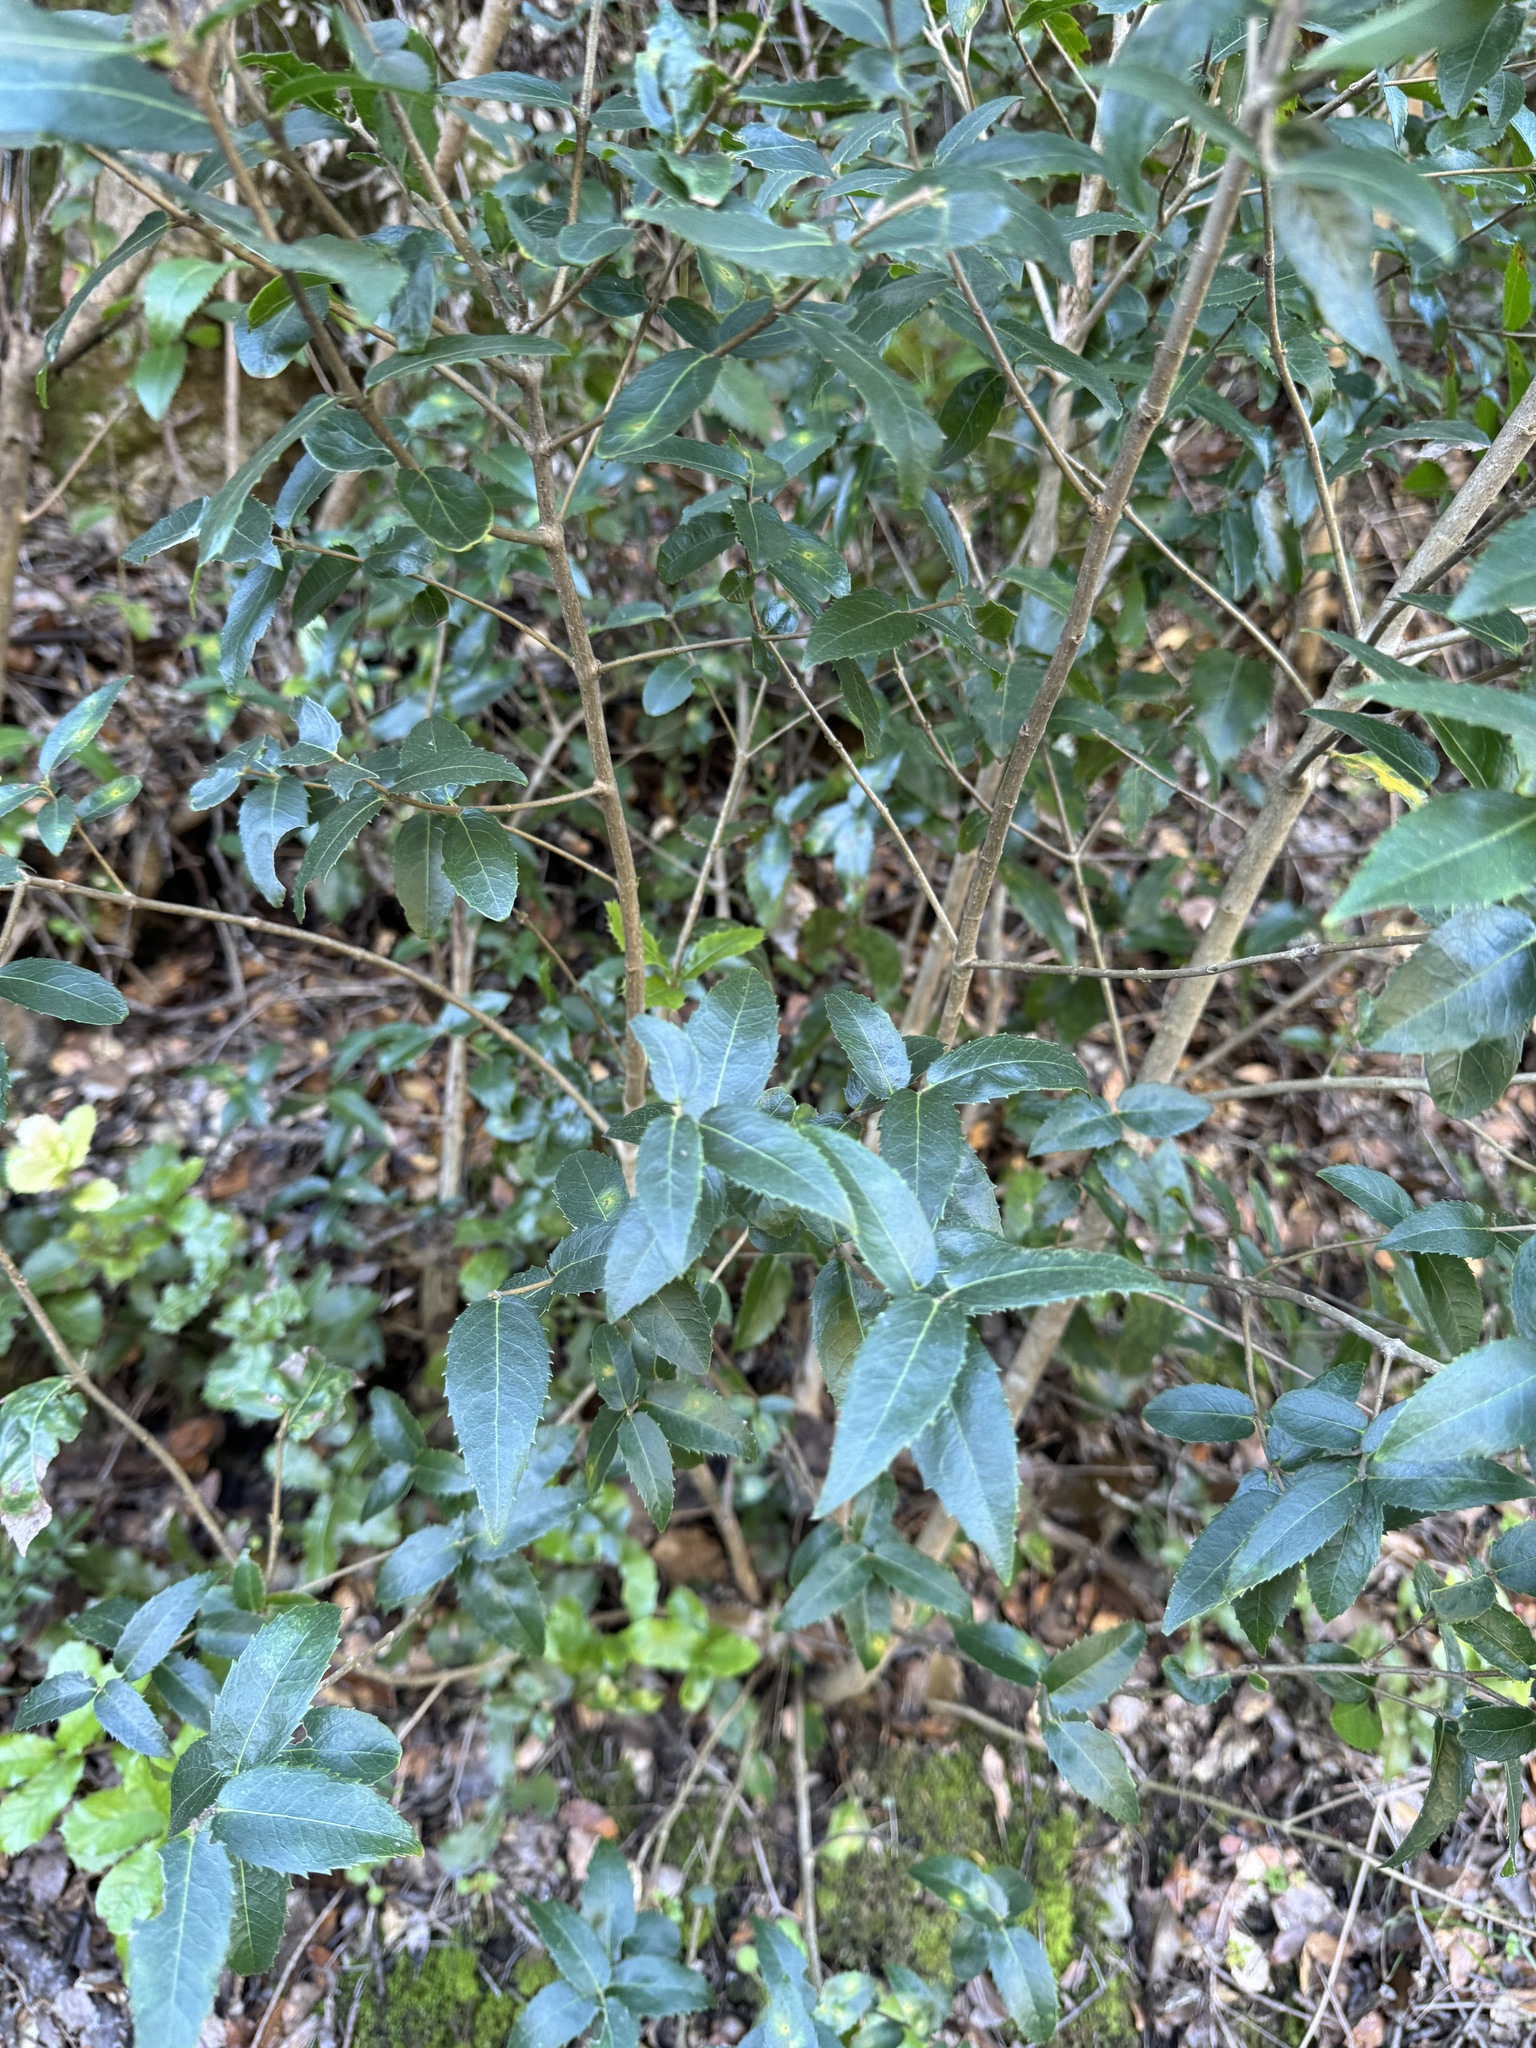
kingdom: Plantae
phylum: Tracheophyta
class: Magnoliopsida
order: Lamiales
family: Oleaceae
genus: Phillyrea
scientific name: Phillyrea latifolia
